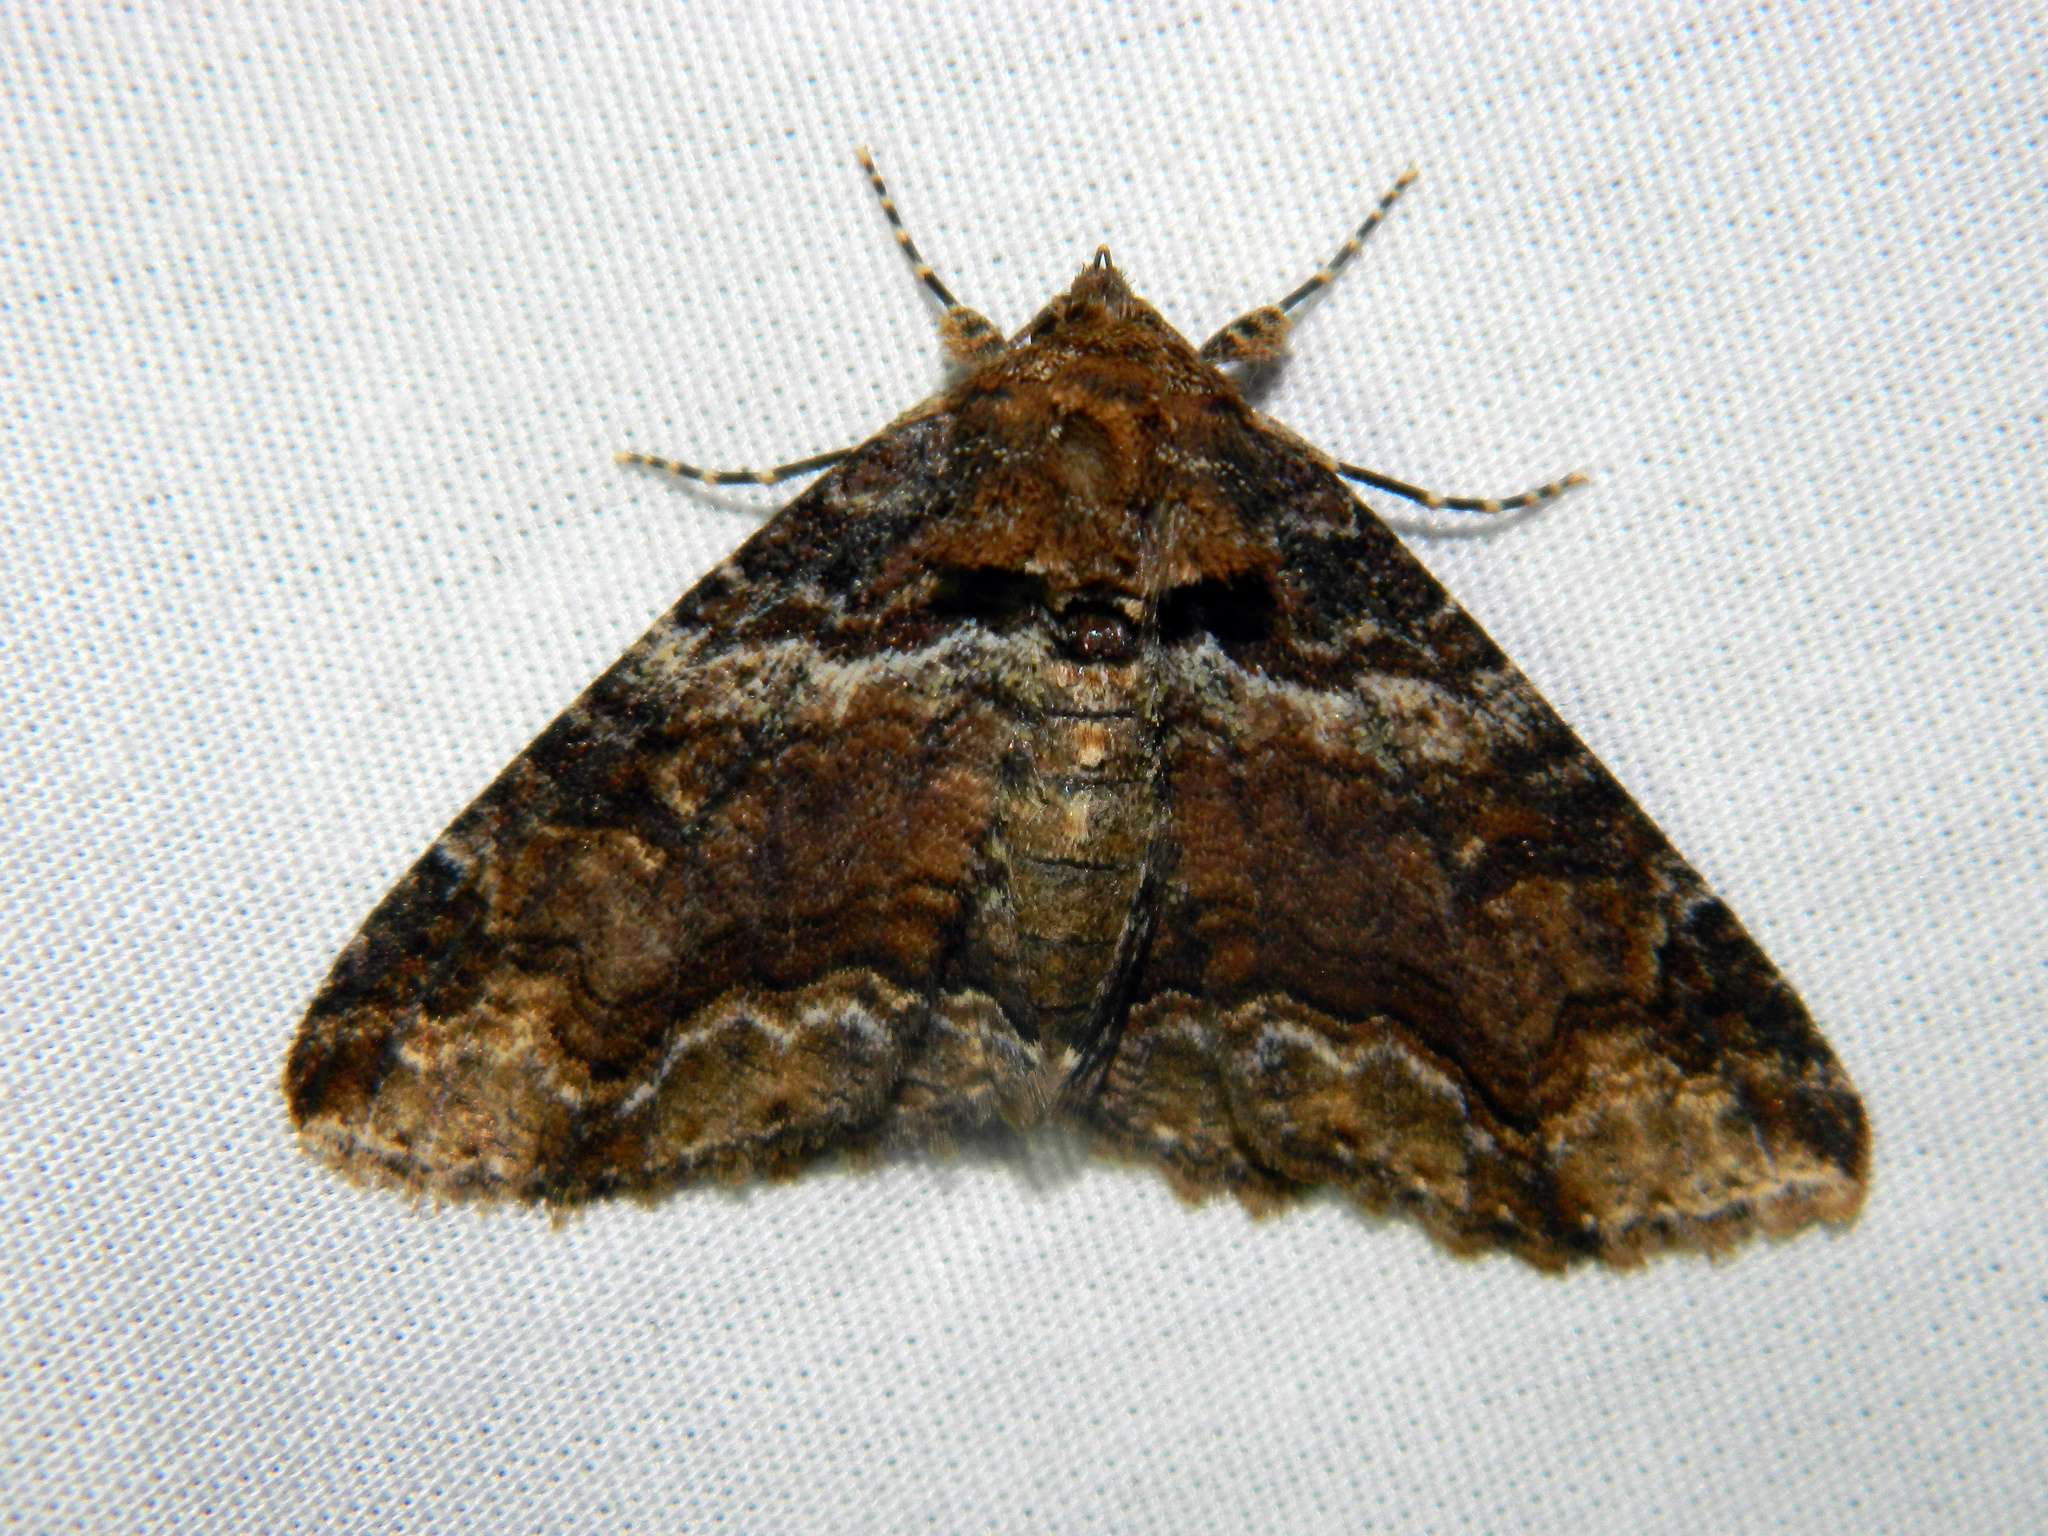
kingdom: Animalia
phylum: Arthropoda
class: Insecta
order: Lepidoptera
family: Erebidae
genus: Zale
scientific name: Zale minerea
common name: Colorful zale moth
